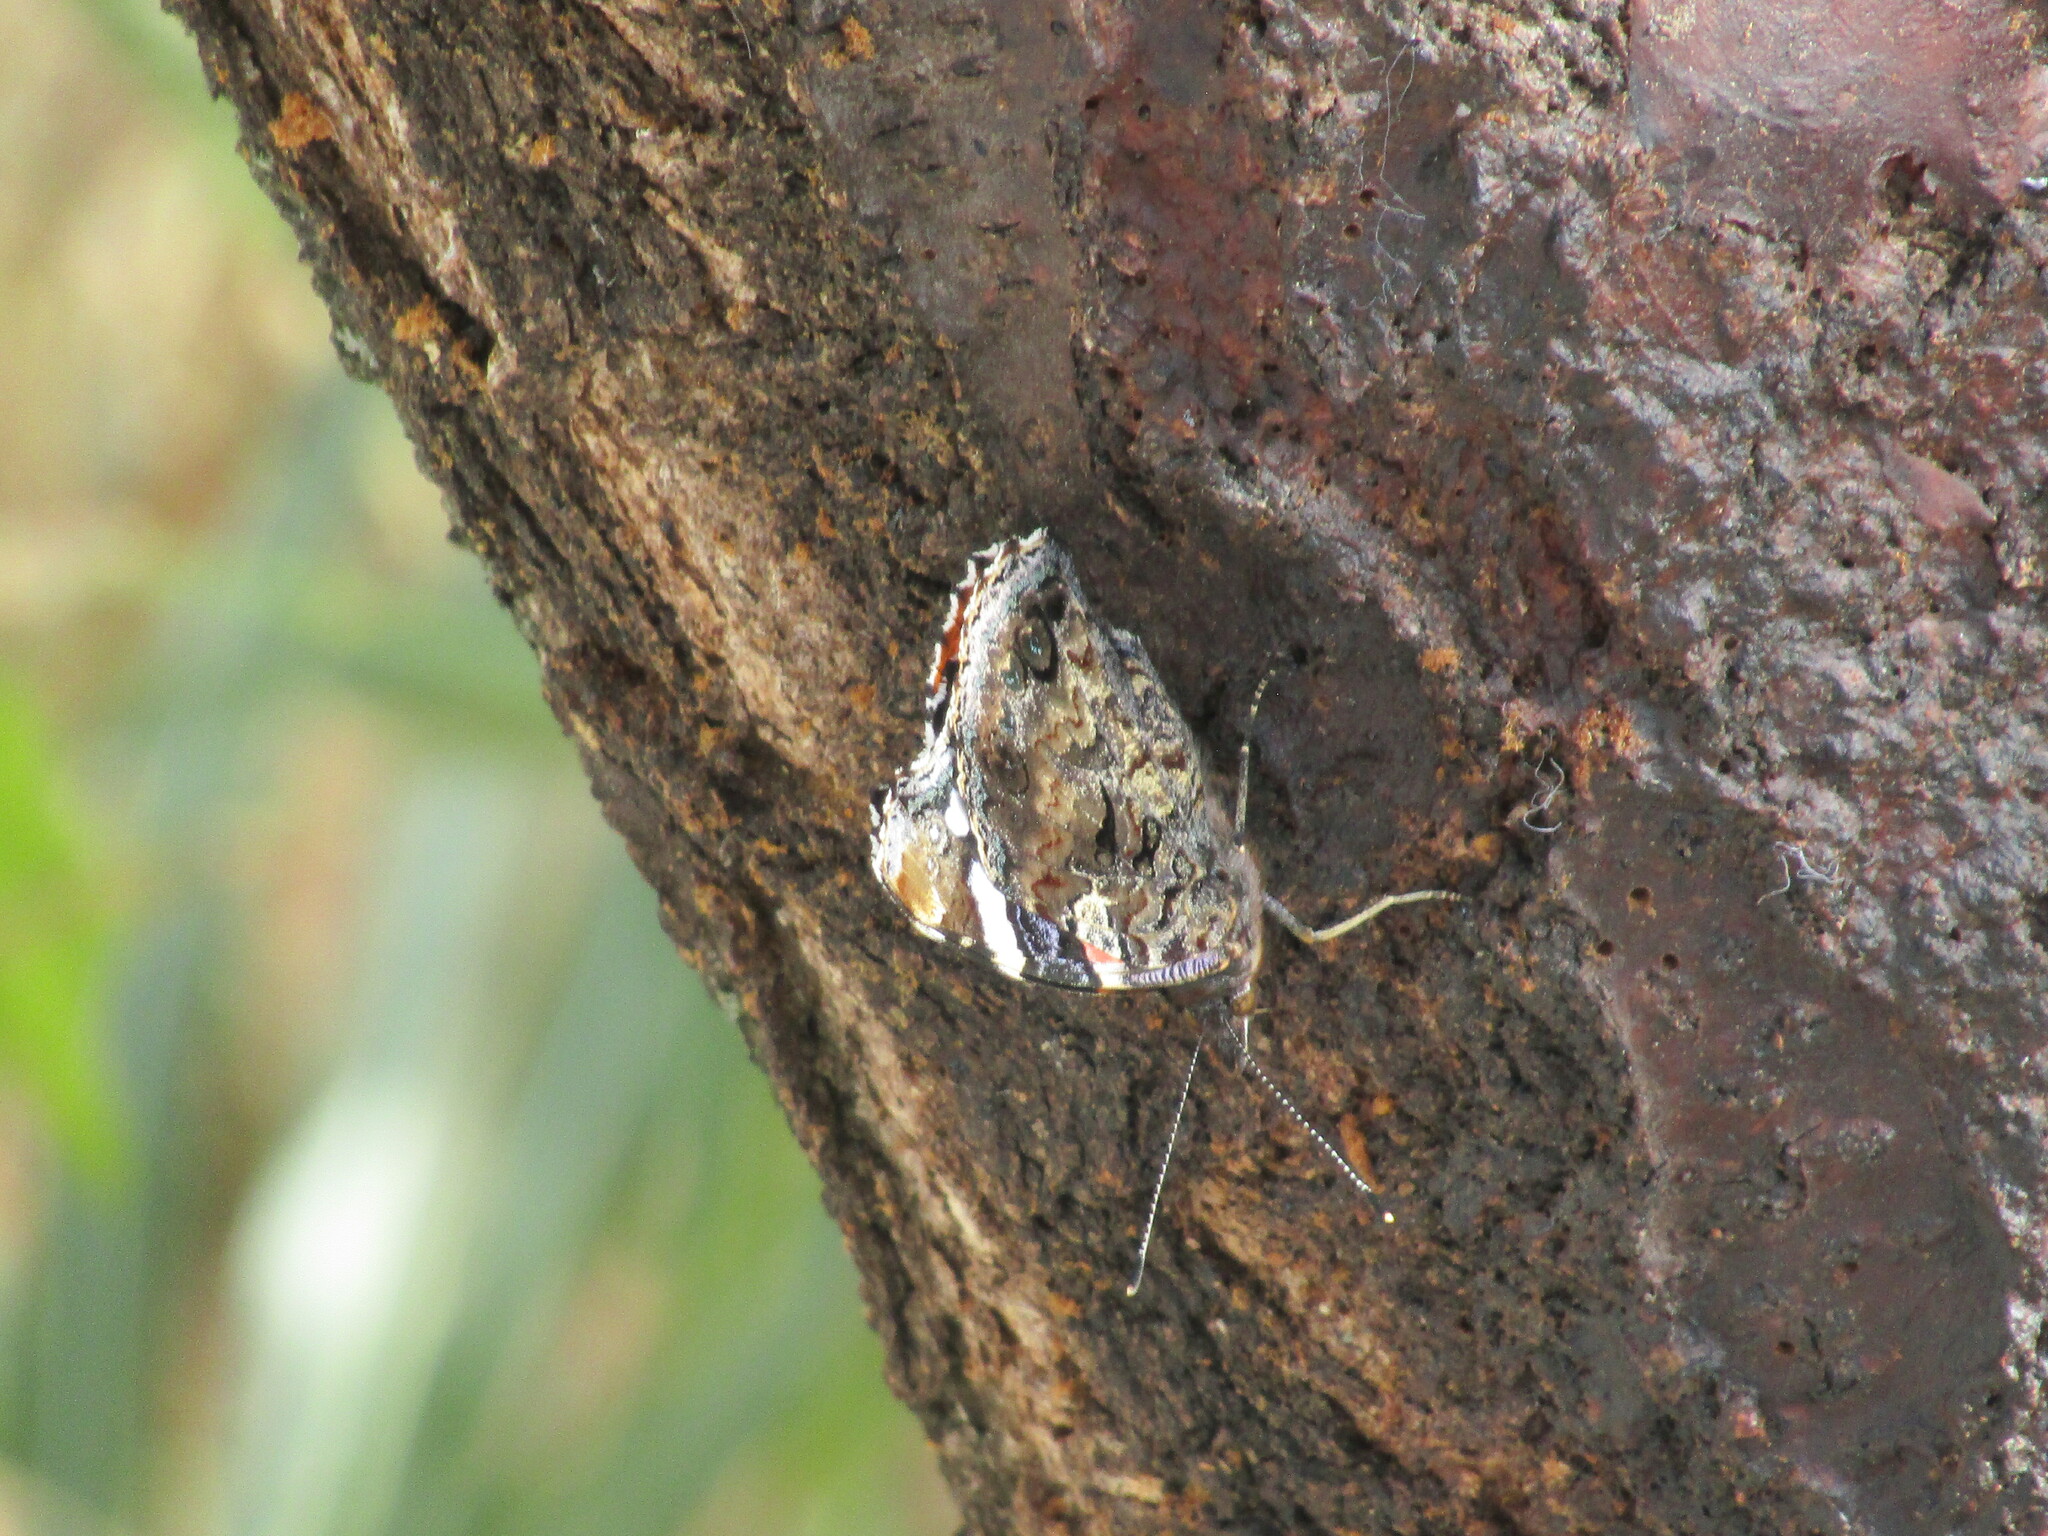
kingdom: Animalia
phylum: Arthropoda
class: Insecta
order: Lepidoptera
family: Nymphalidae
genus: Vanessa
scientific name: Vanessa atalanta
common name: Red admiral
